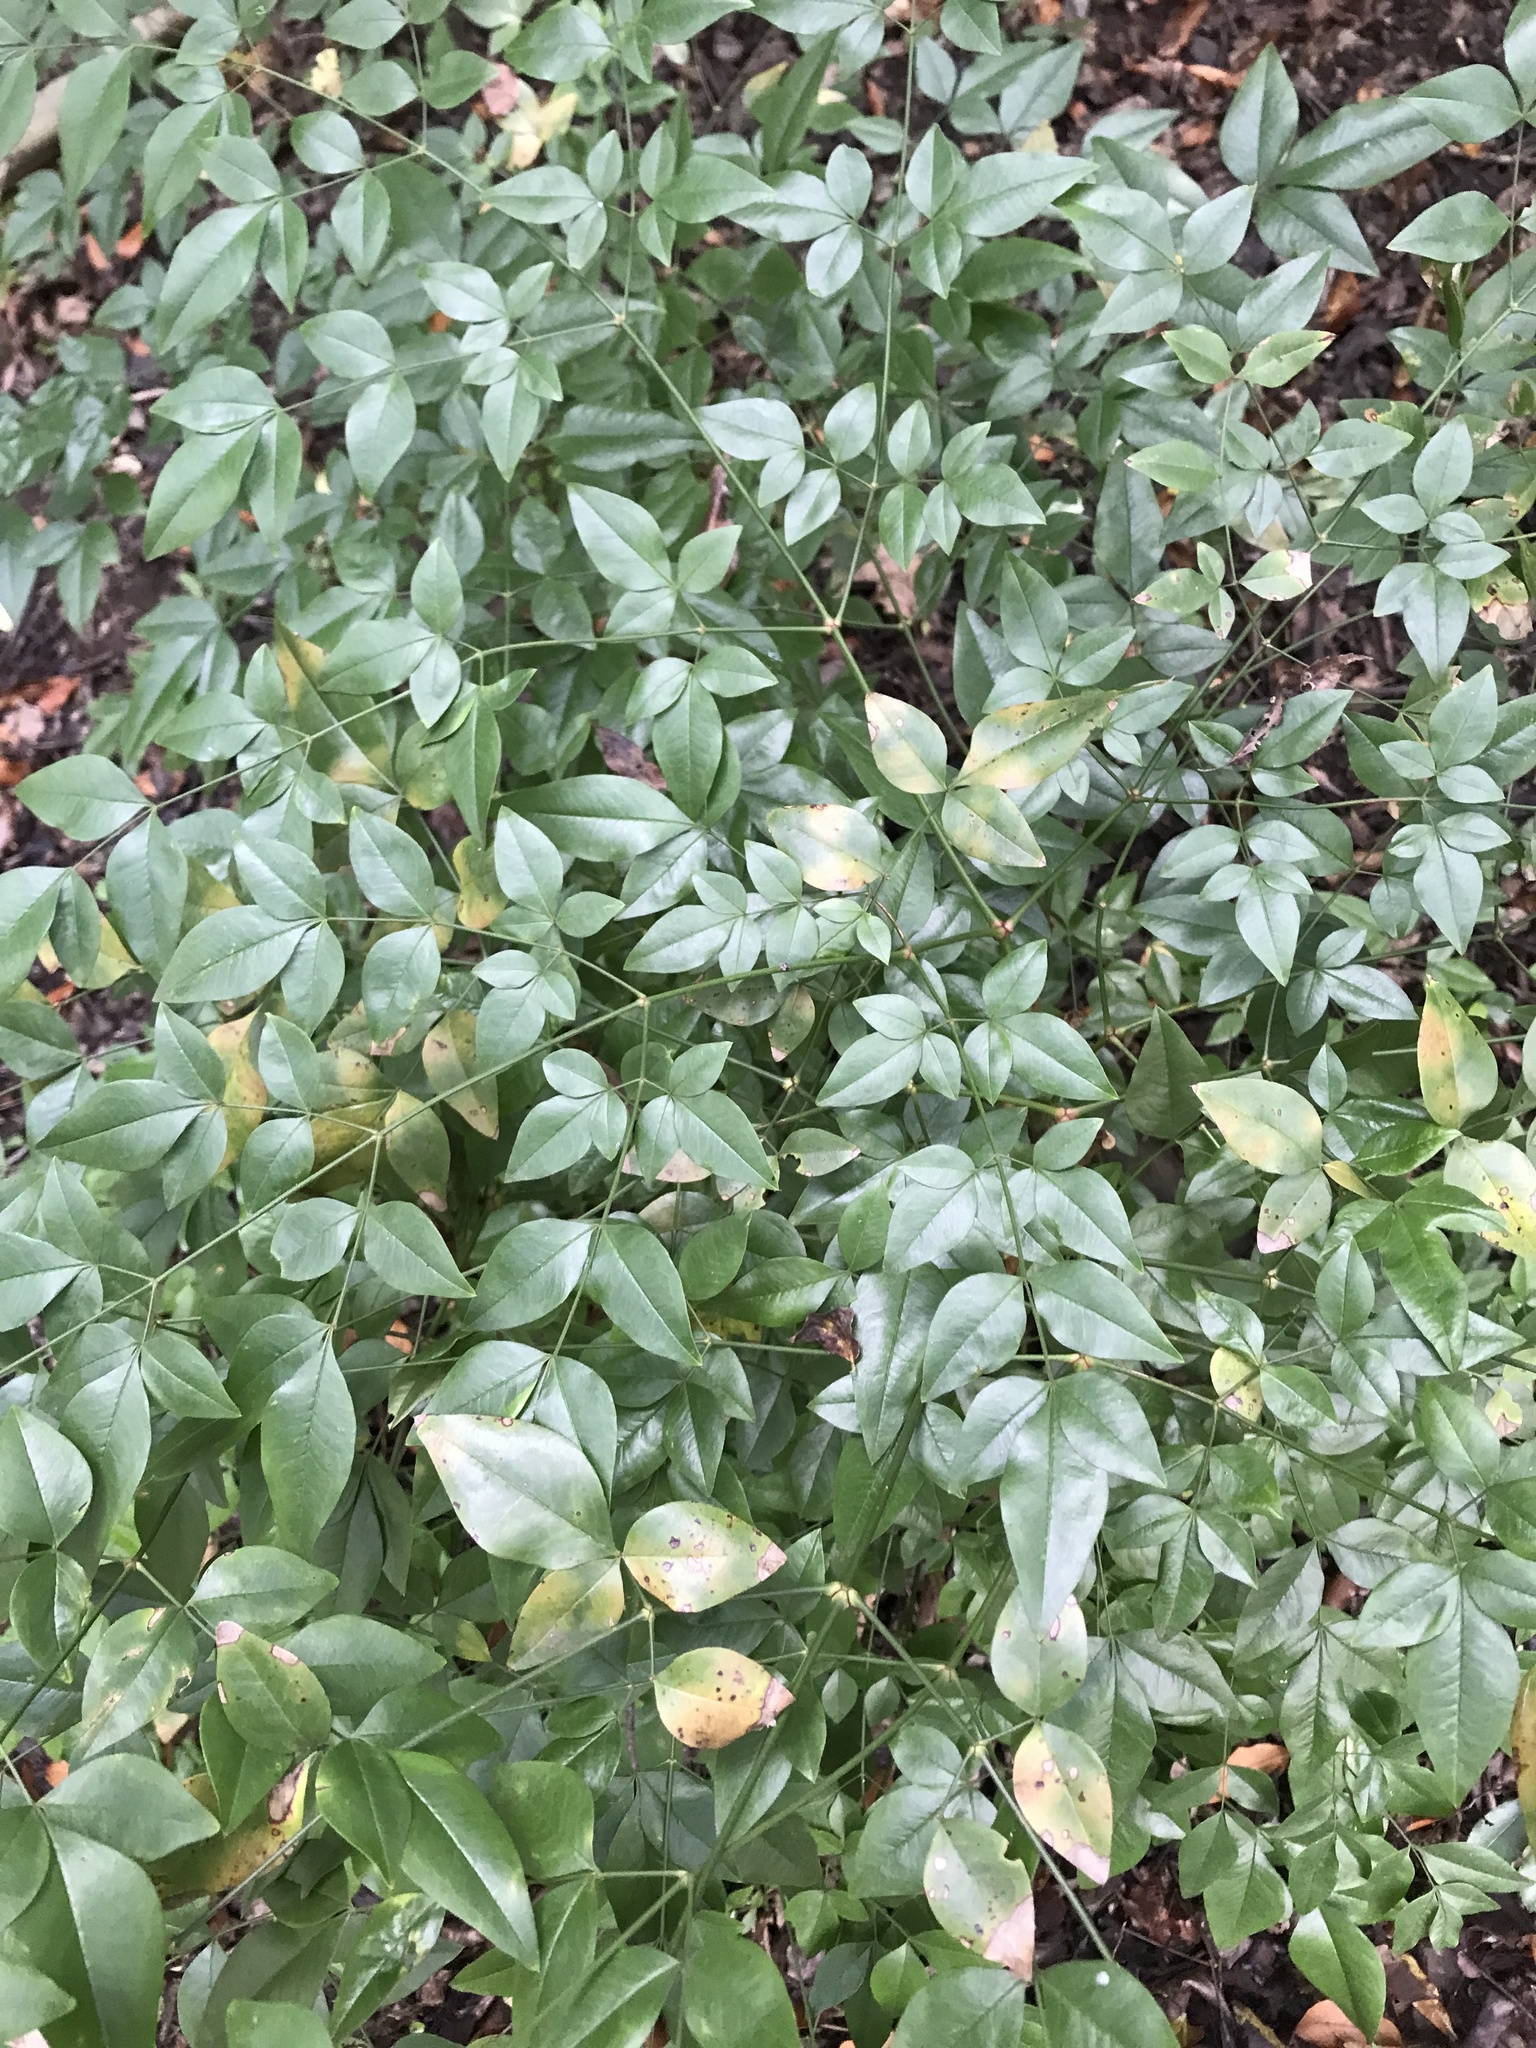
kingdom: Plantae
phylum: Tracheophyta
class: Magnoliopsida
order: Ranunculales
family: Berberidaceae
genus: Nandina
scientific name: Nandina domestica
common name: Sacred bamboo
